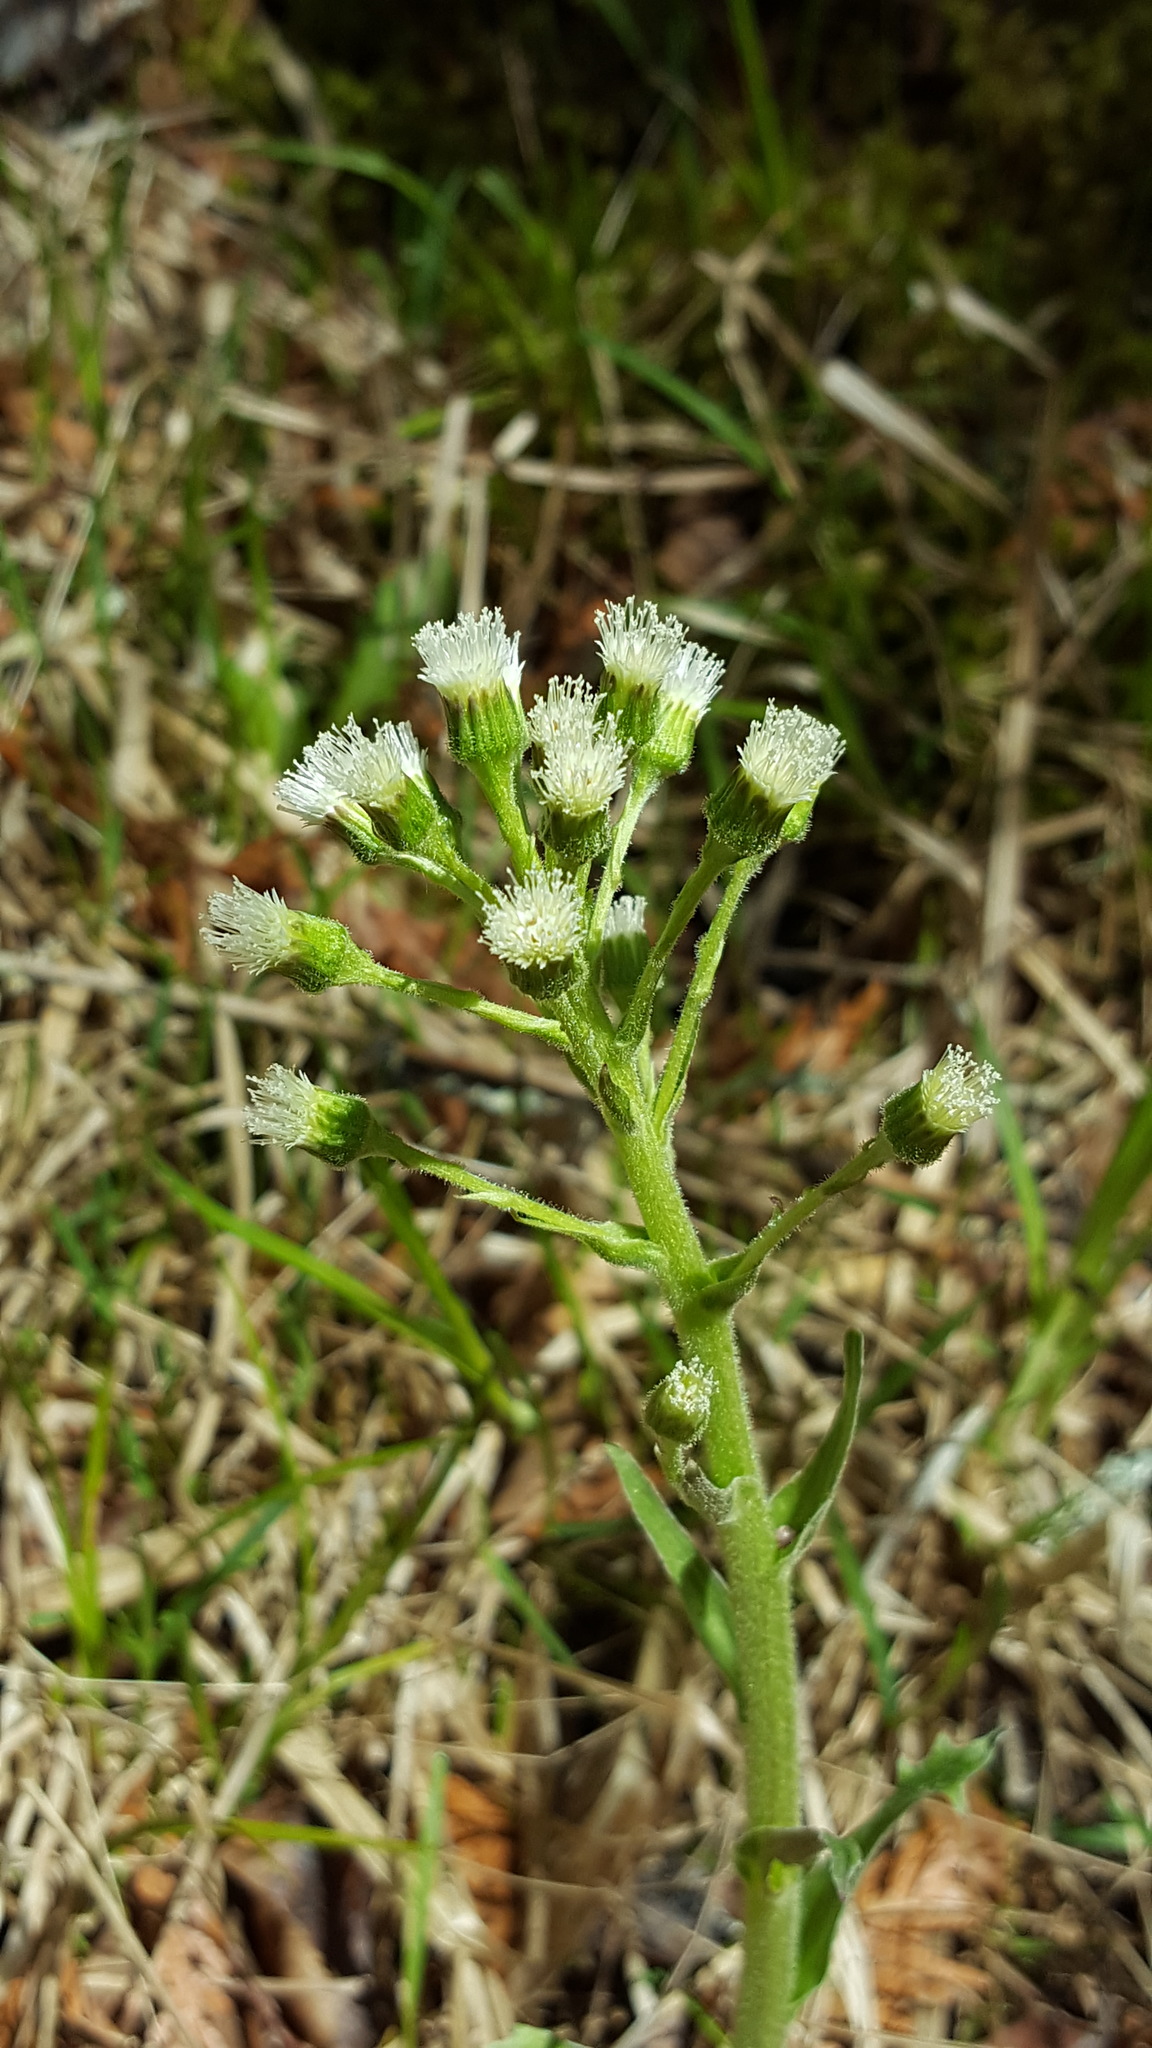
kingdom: Plantae
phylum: Tracheophyta
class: Magnoliopsida
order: Asterales
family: Asteraceae
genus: Petasites
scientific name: Petasites frigidus
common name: Arctic butterbur
